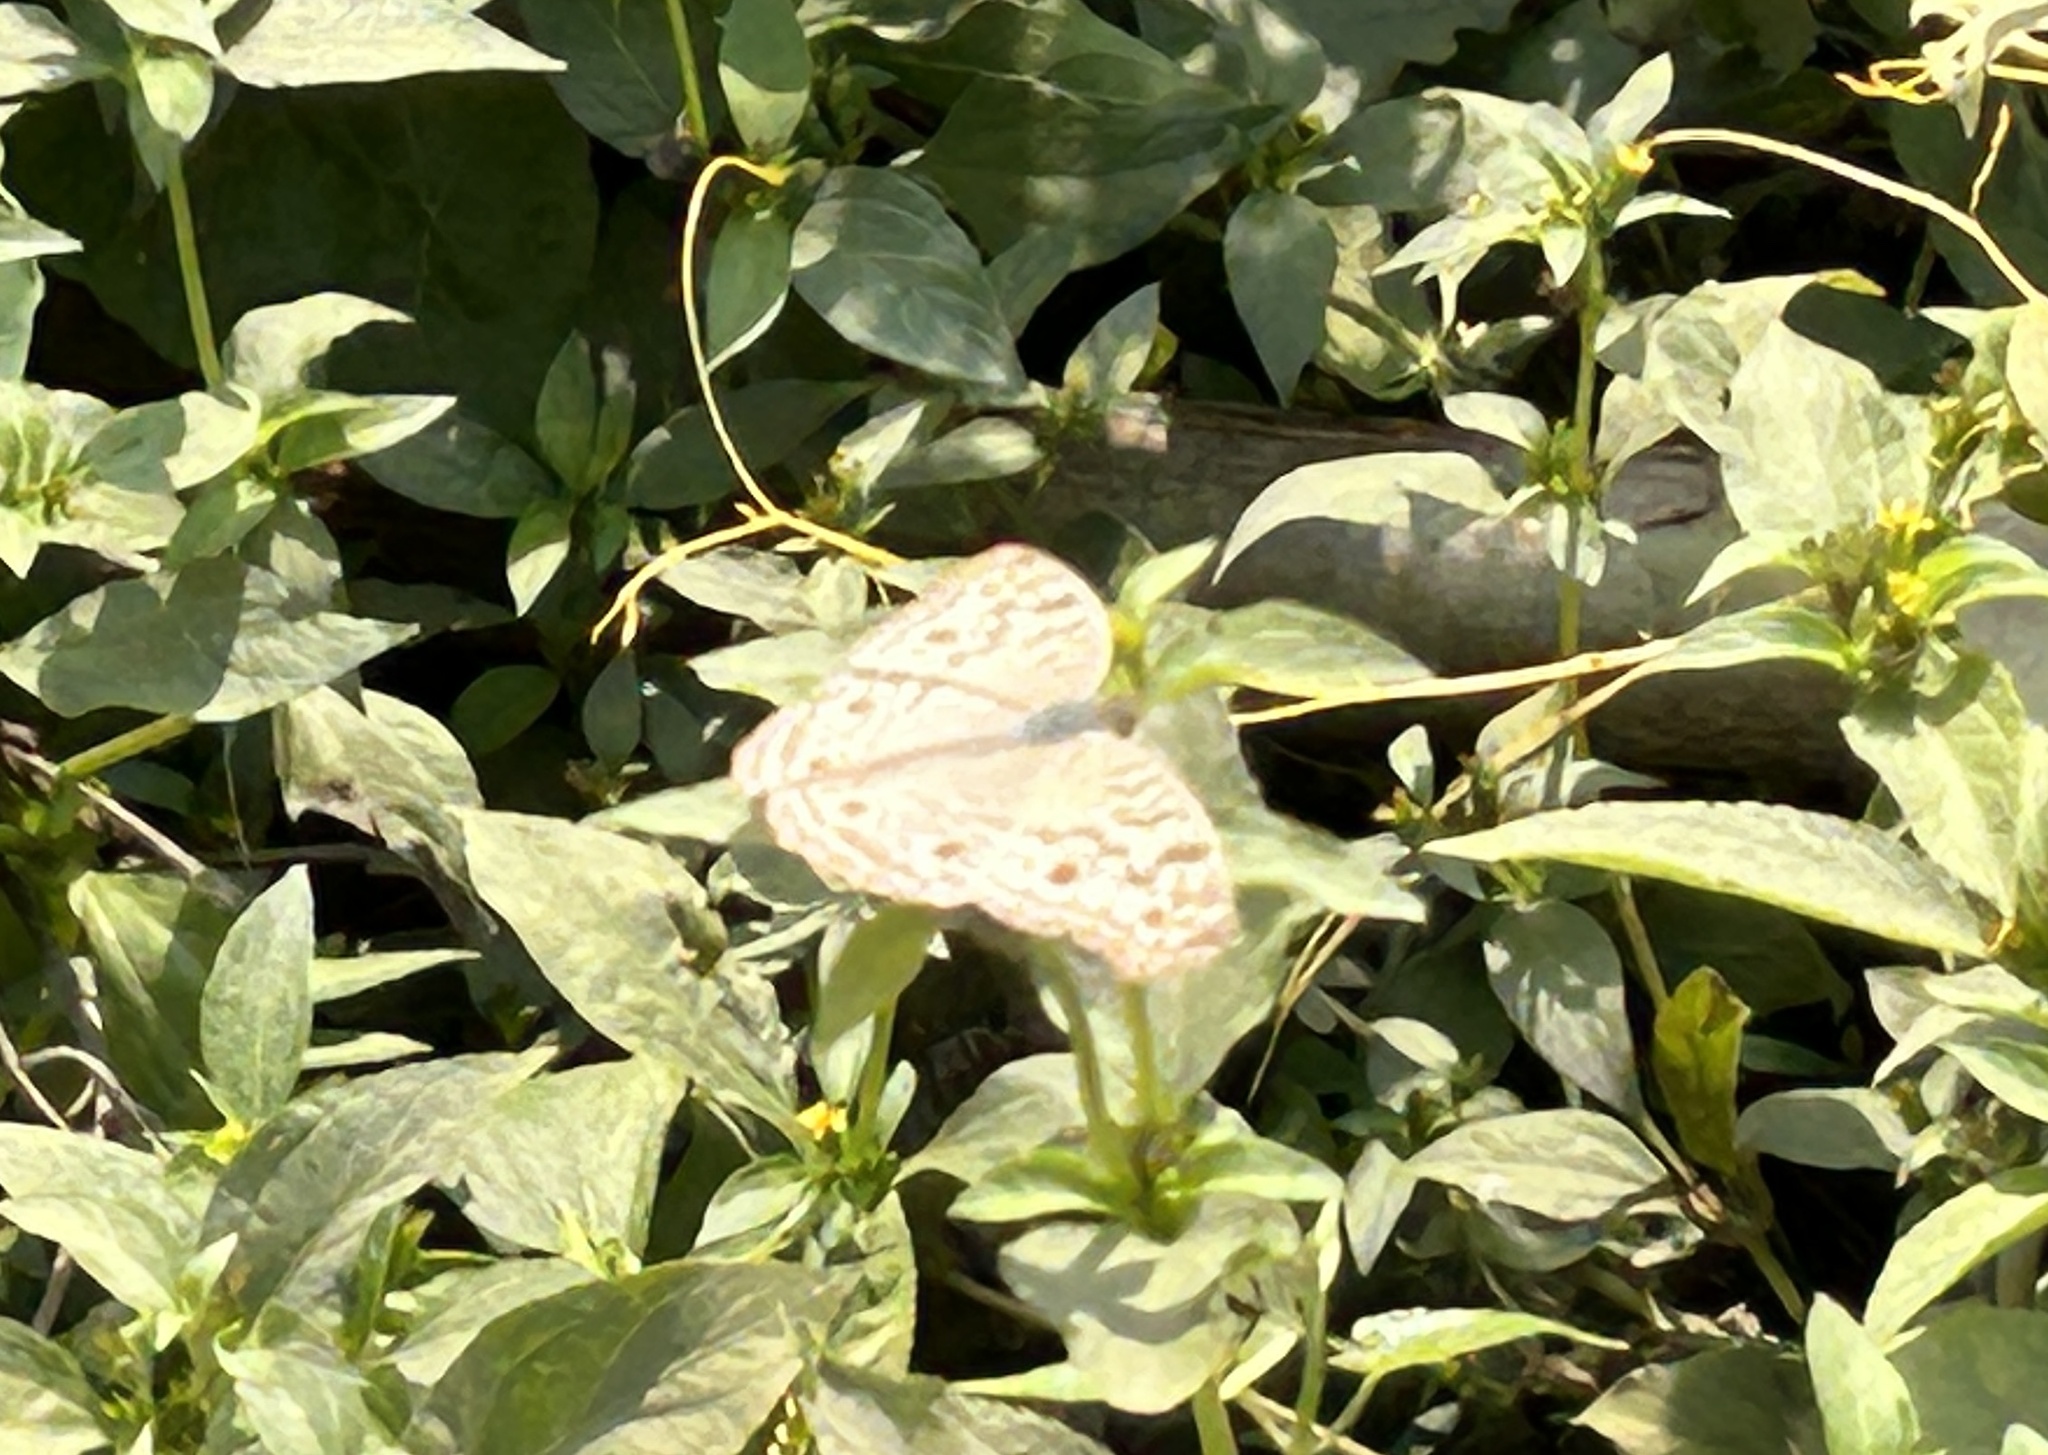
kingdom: Animalia
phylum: Arthropoda
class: Insecta
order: Lepidoptera
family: Nymphalidae
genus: Junonia
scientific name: Junonia atlites
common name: Grey pansy
